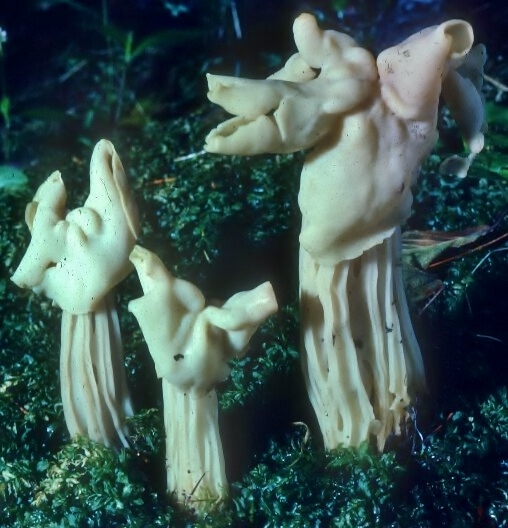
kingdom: Fungi
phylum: Ascomycota
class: Pezizomycetes
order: Pezizales
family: Helvellaceae
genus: Helvella
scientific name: Helvella crispa
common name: White saddle
